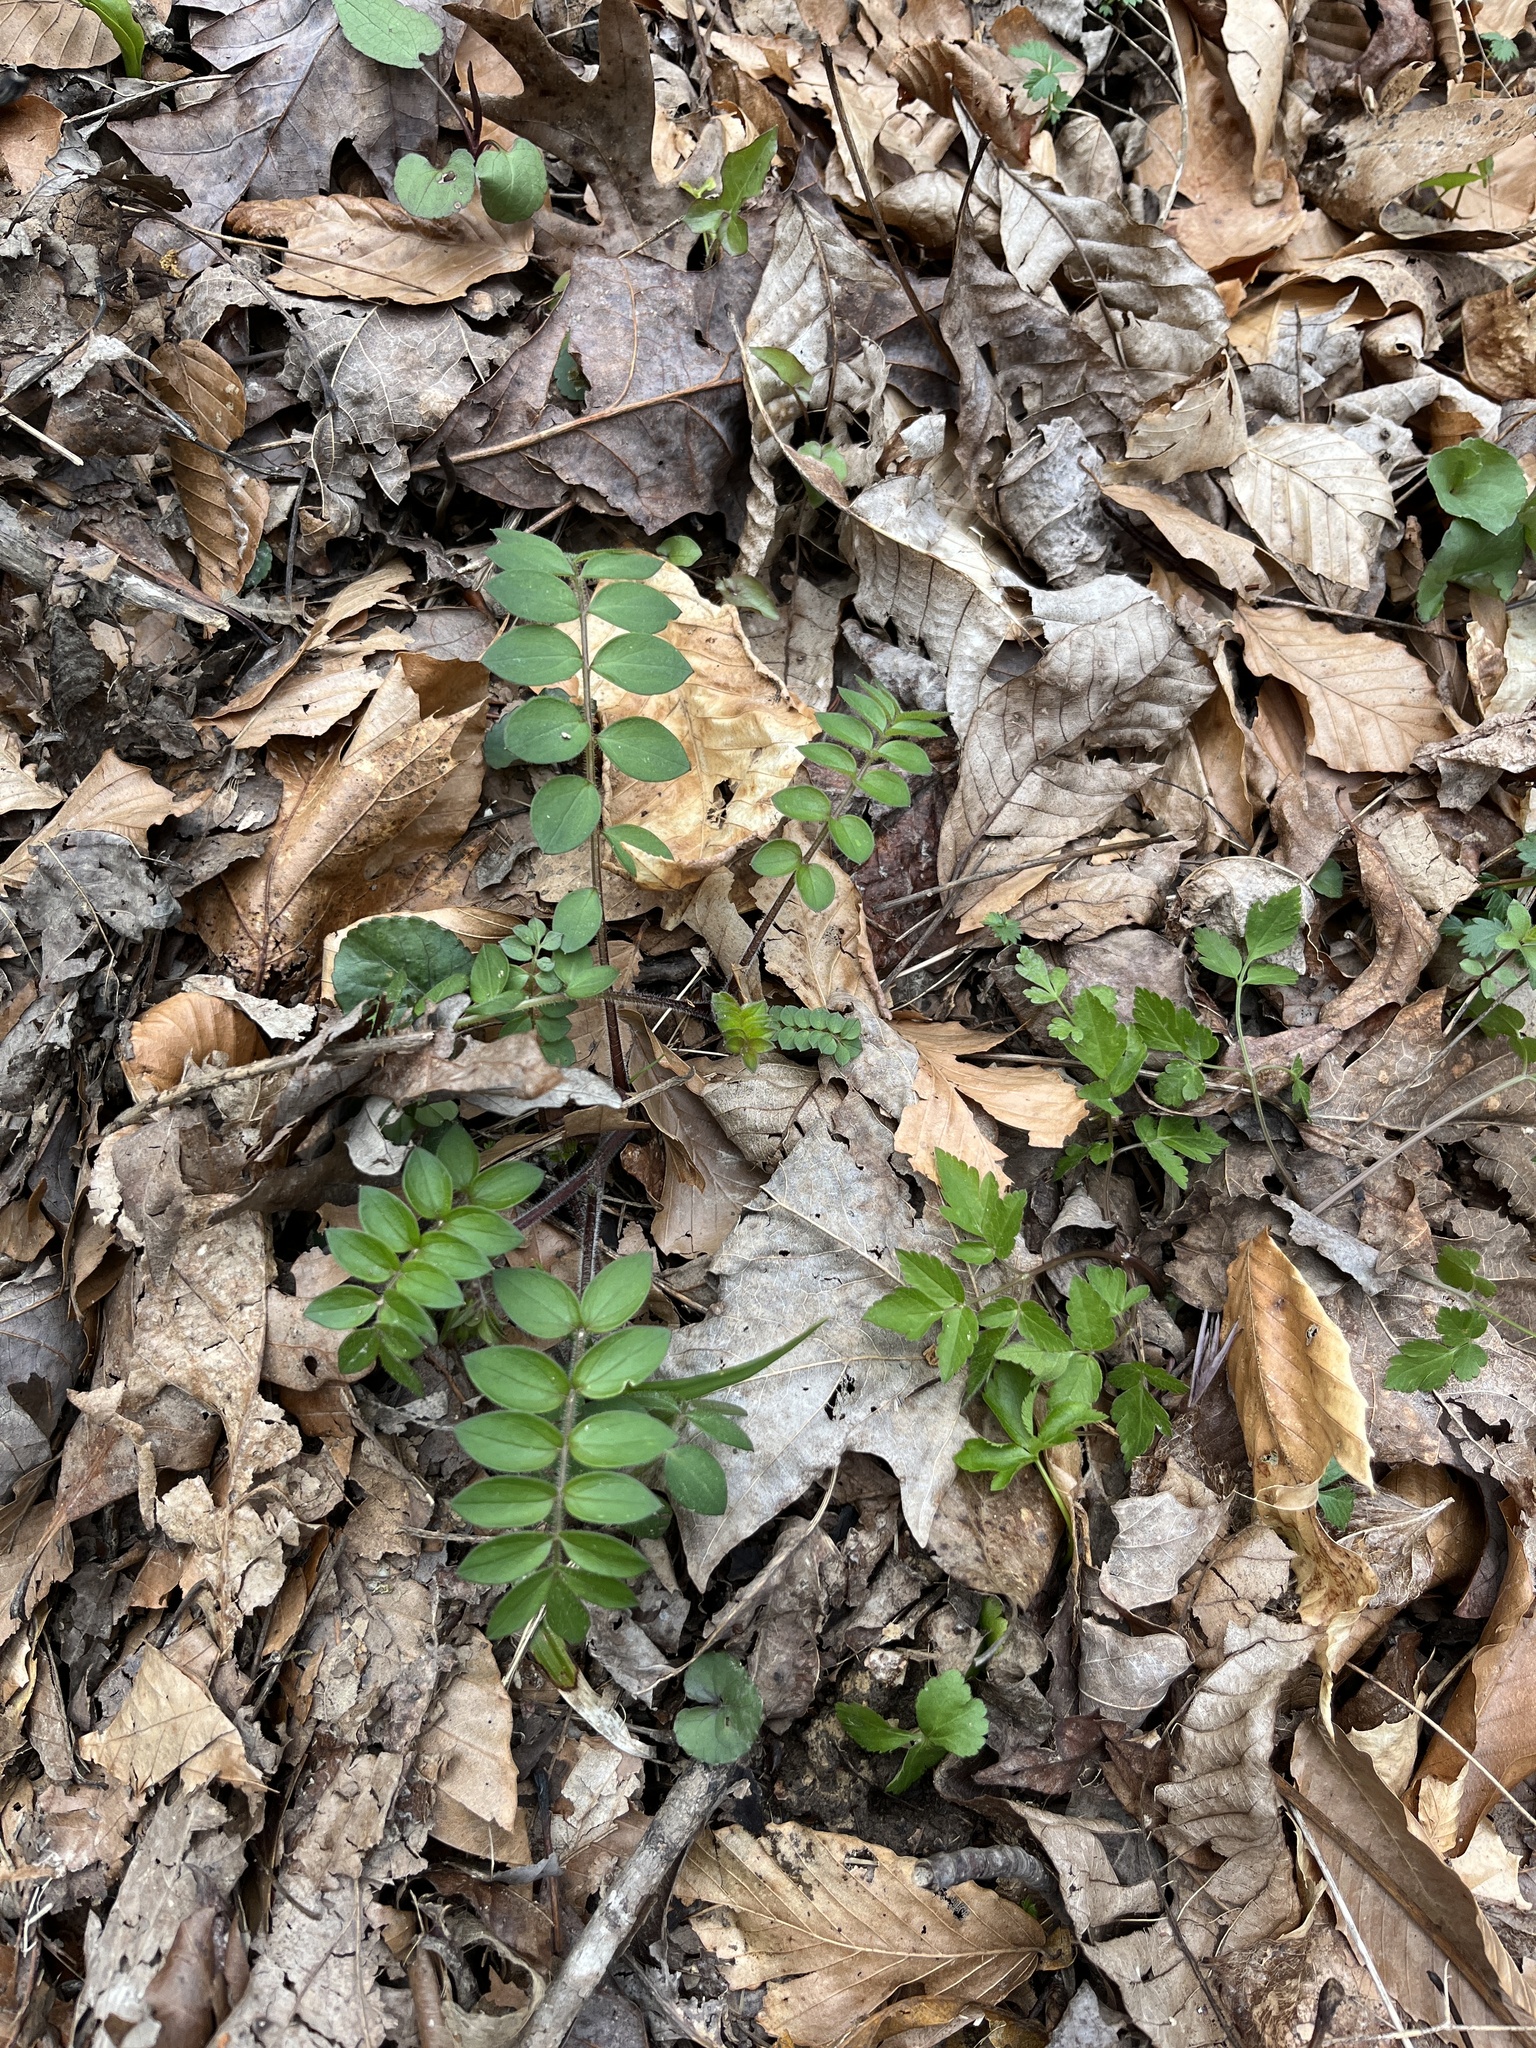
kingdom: Plantae
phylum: Tracheophyta
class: Magnoliopsida
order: Ericales
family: Polemoniaceae
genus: Polemonium
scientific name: Polemonium reptans
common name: Creeping jacob's-ladder
